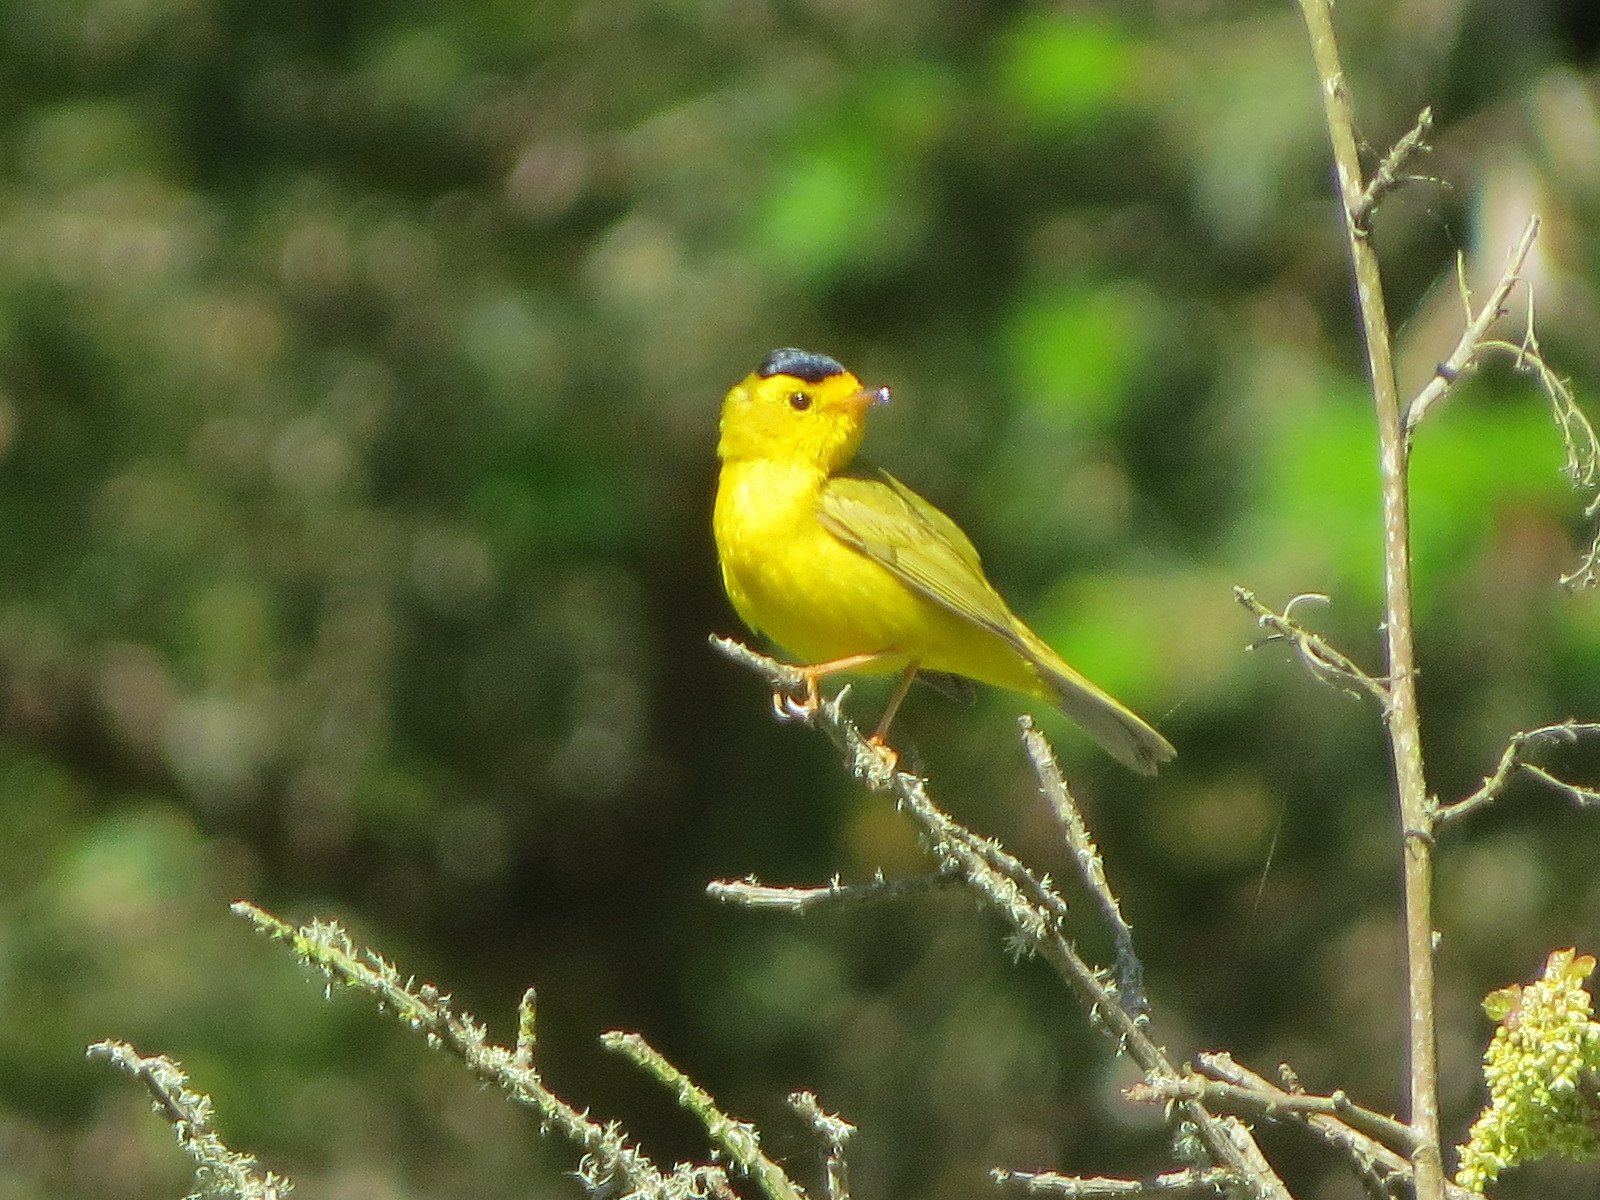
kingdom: Animalia
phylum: Chordata
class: Aves
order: Passeriformes
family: Parulidae
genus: Cardellina
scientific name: Cardellina pusilla
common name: Wilson's warbler
